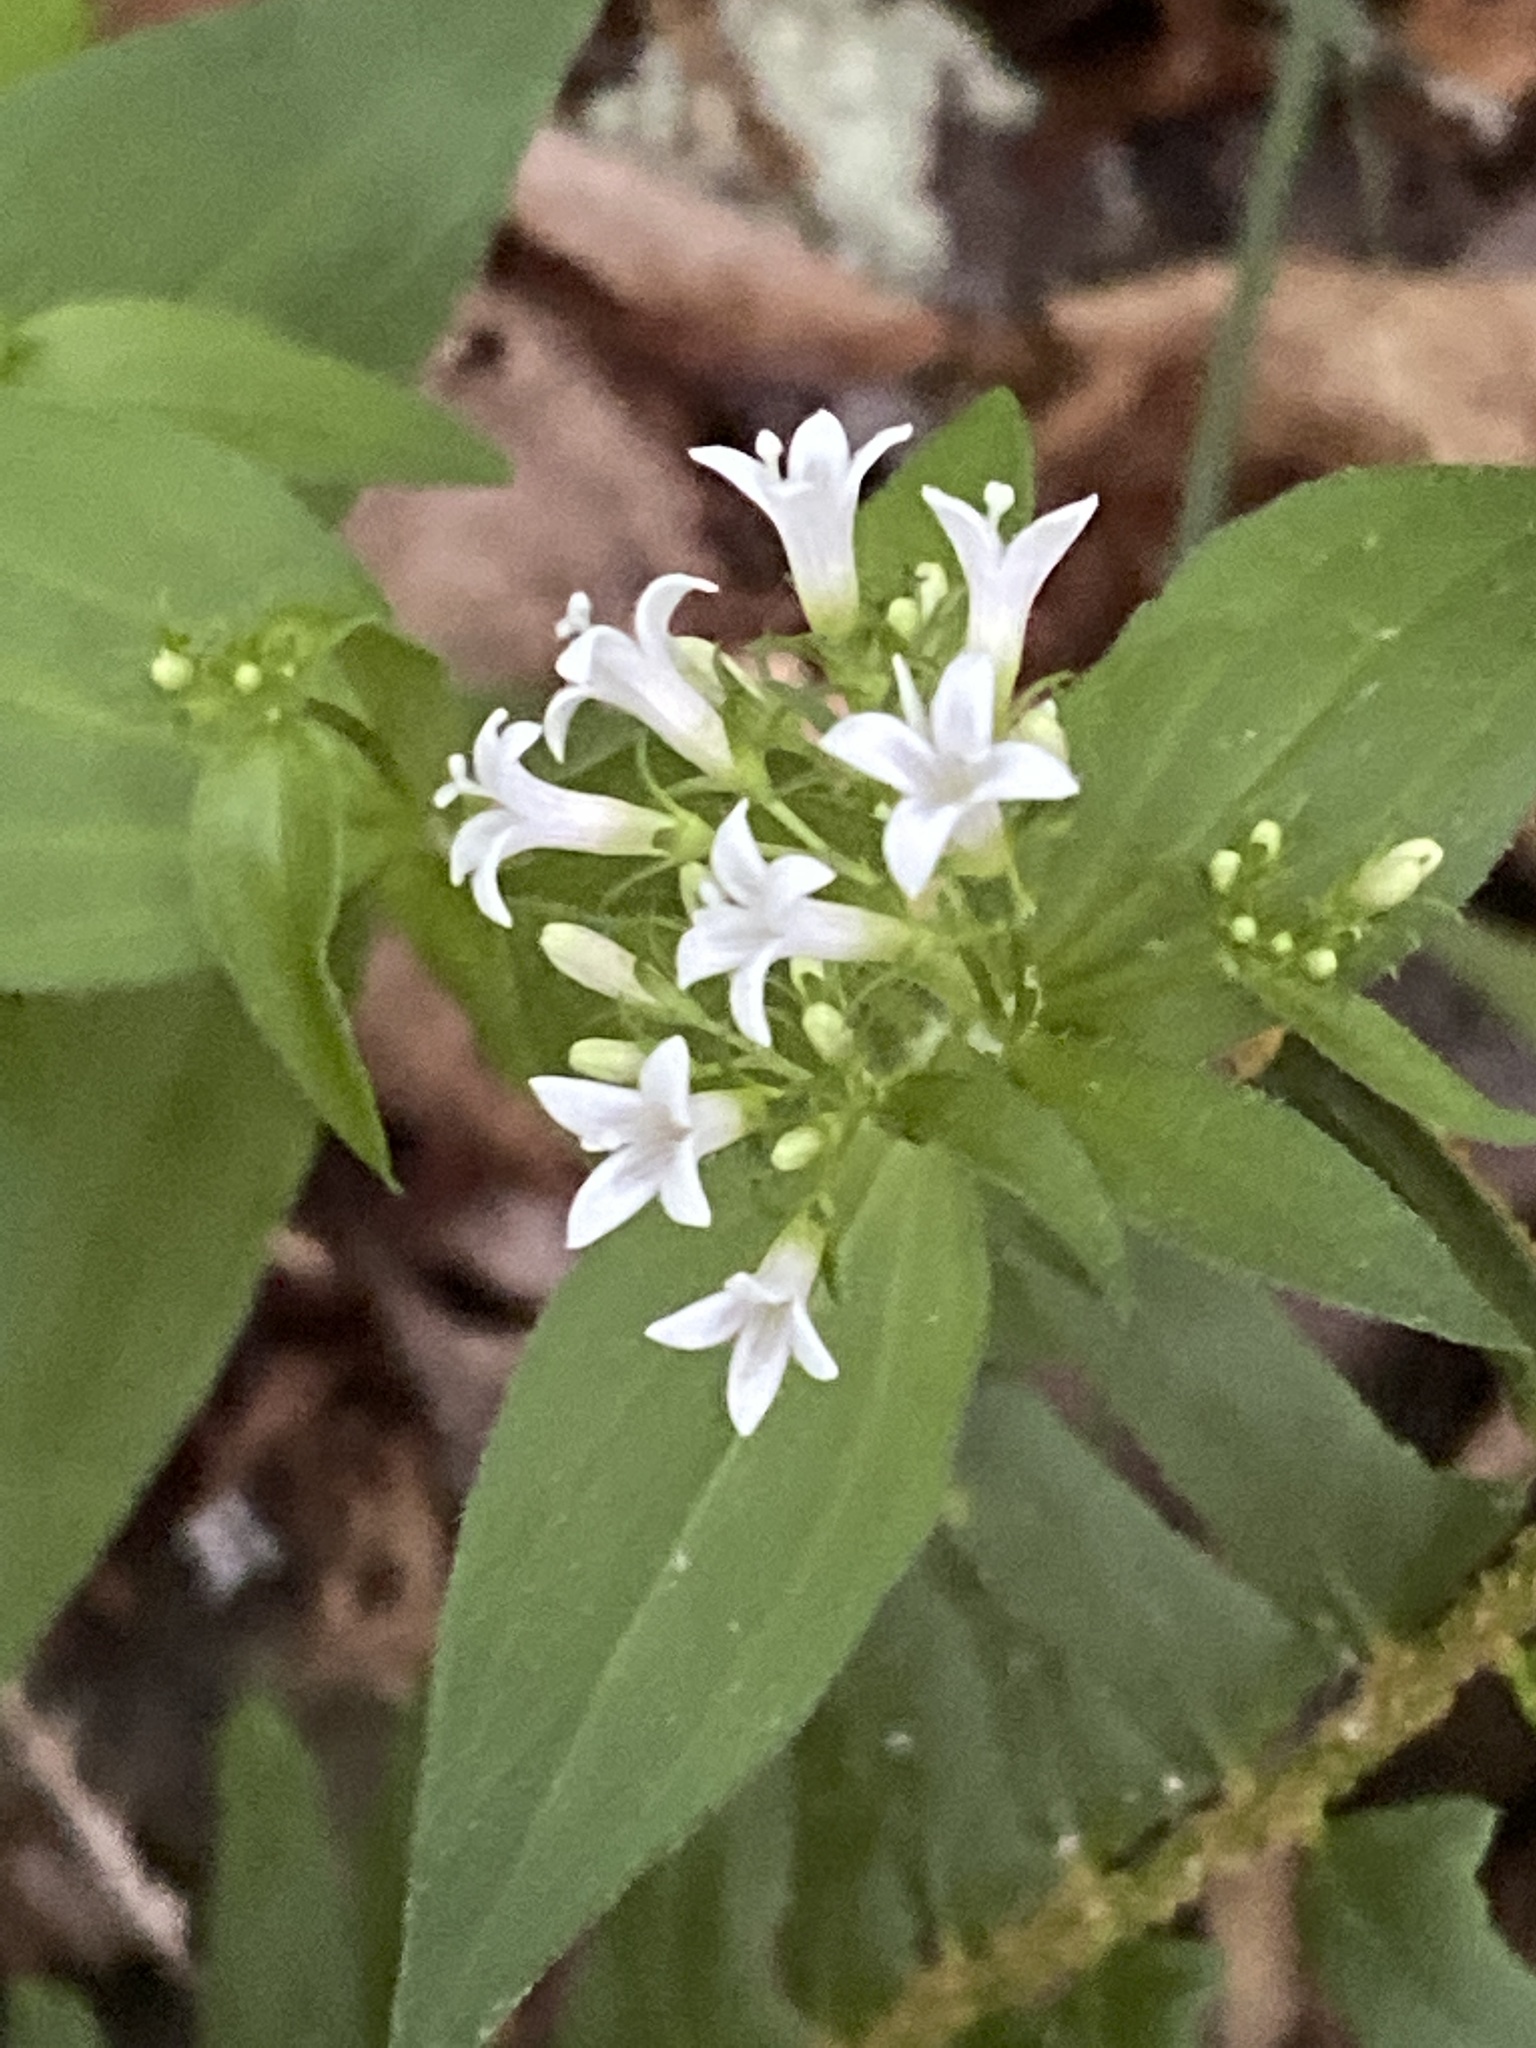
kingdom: Plantae
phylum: Tracheophyta
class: Magnoliopsida
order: Gentianales
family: Rubiaceae
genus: Houstonia
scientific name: Houstonia purpurea
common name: Summer bluet
